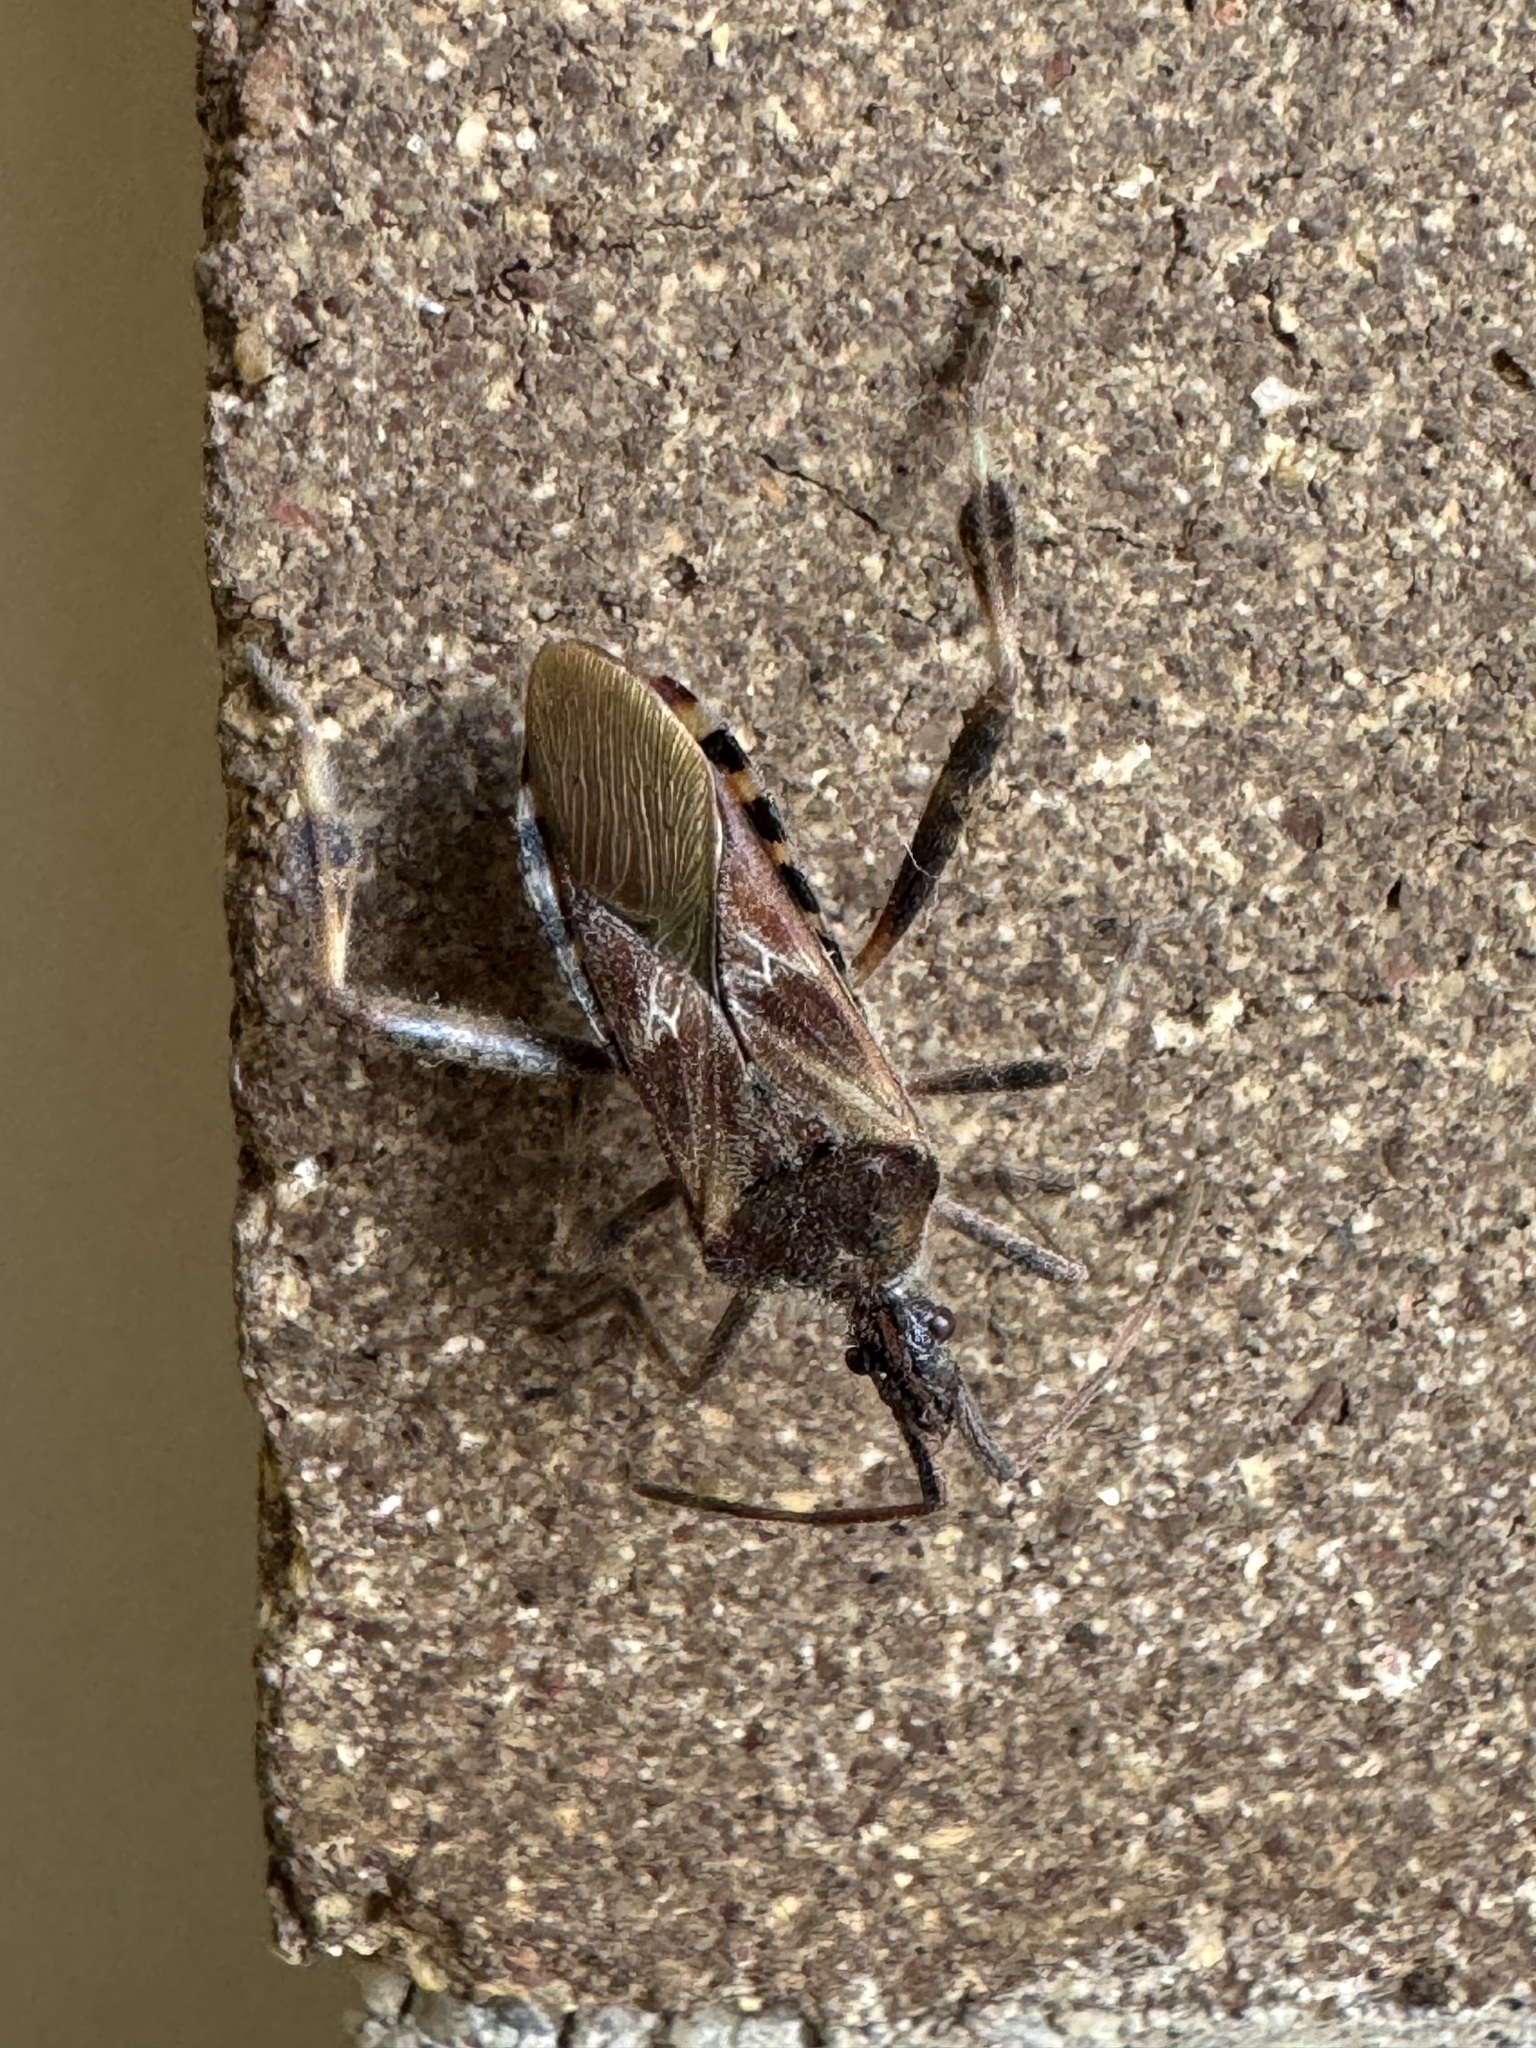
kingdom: Animalia
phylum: Arthropoda
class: Insecta
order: Hemiptera
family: Coreidae
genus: Leptoglossus
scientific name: Leptoglossus occidentalis
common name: Western conifer-seed bug
